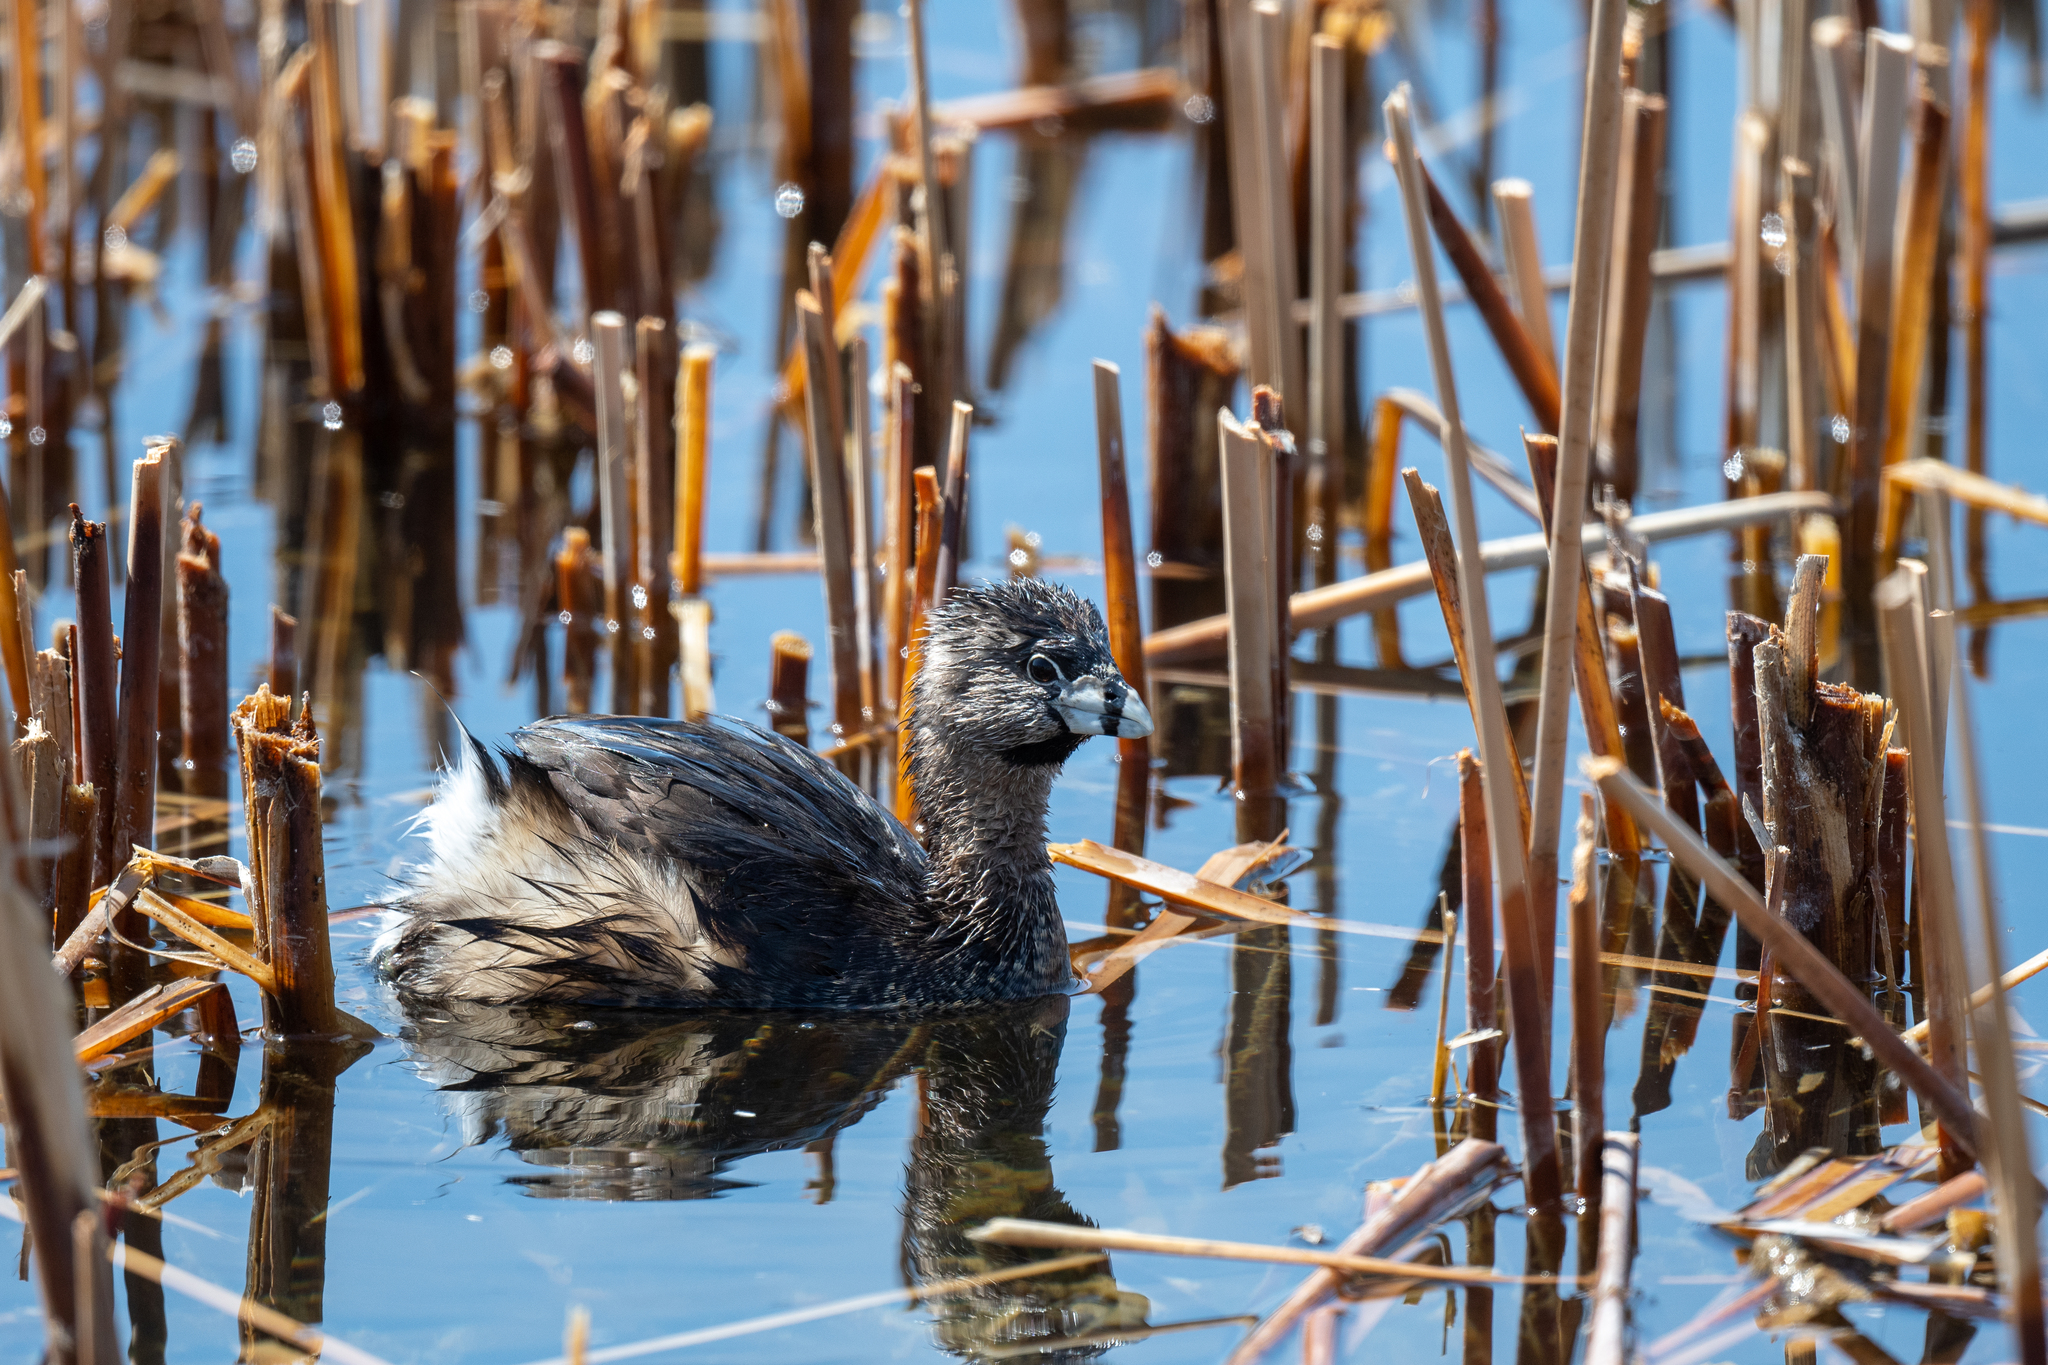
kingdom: Animalia
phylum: Chordata
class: Aves
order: Podicipediformes
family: Podicipedidae
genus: Podilymbus
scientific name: Podilymbus podiceps
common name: Pied-billed grebe
